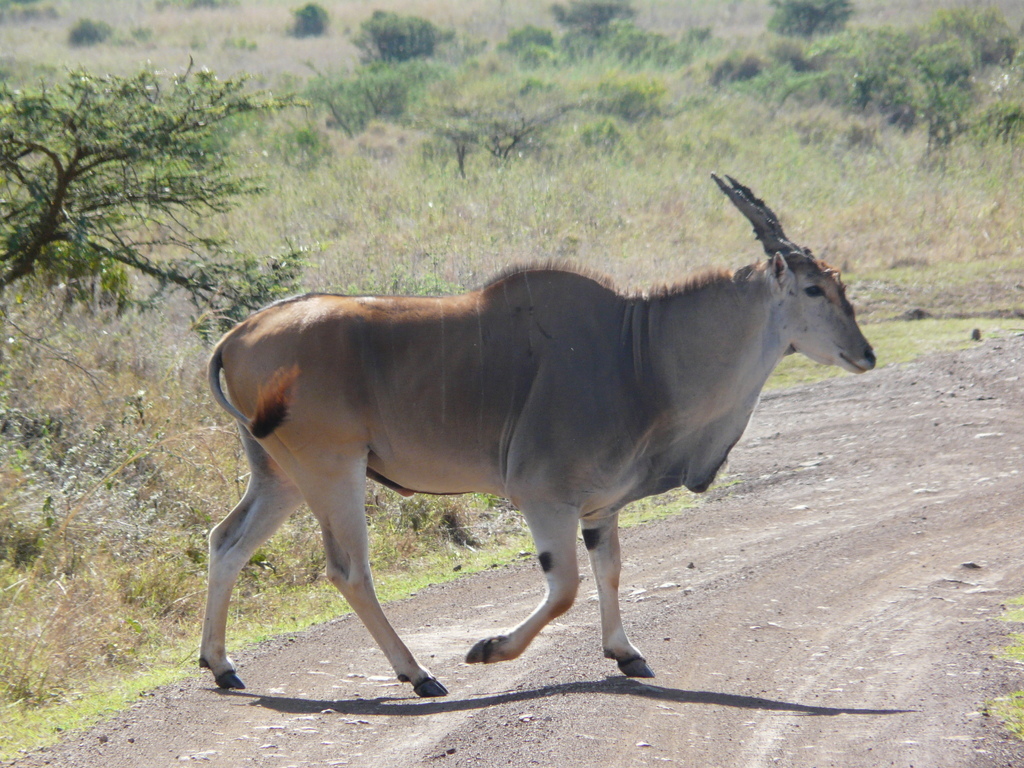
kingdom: Animalia
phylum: Chordata
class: Mammalia
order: Artiodactyla
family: Bovidae
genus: Taurotragus
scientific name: Taurotragus oryx
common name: Common eland
